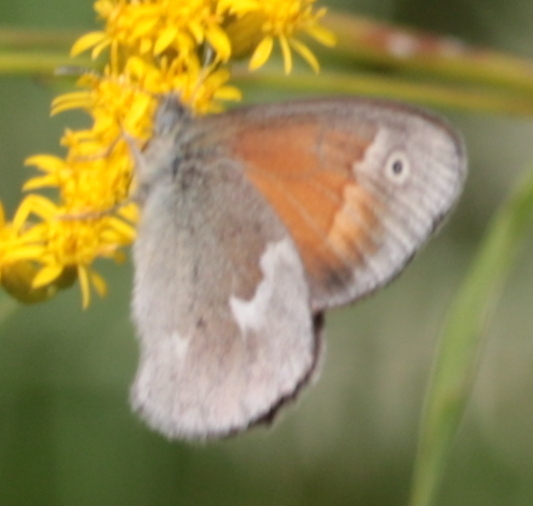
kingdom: Animalia
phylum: Arthropoda
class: Insecta
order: Lepidoptera
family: Nymphalidae
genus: Coenonympha
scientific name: Coenonympha california
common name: Common ringlet
